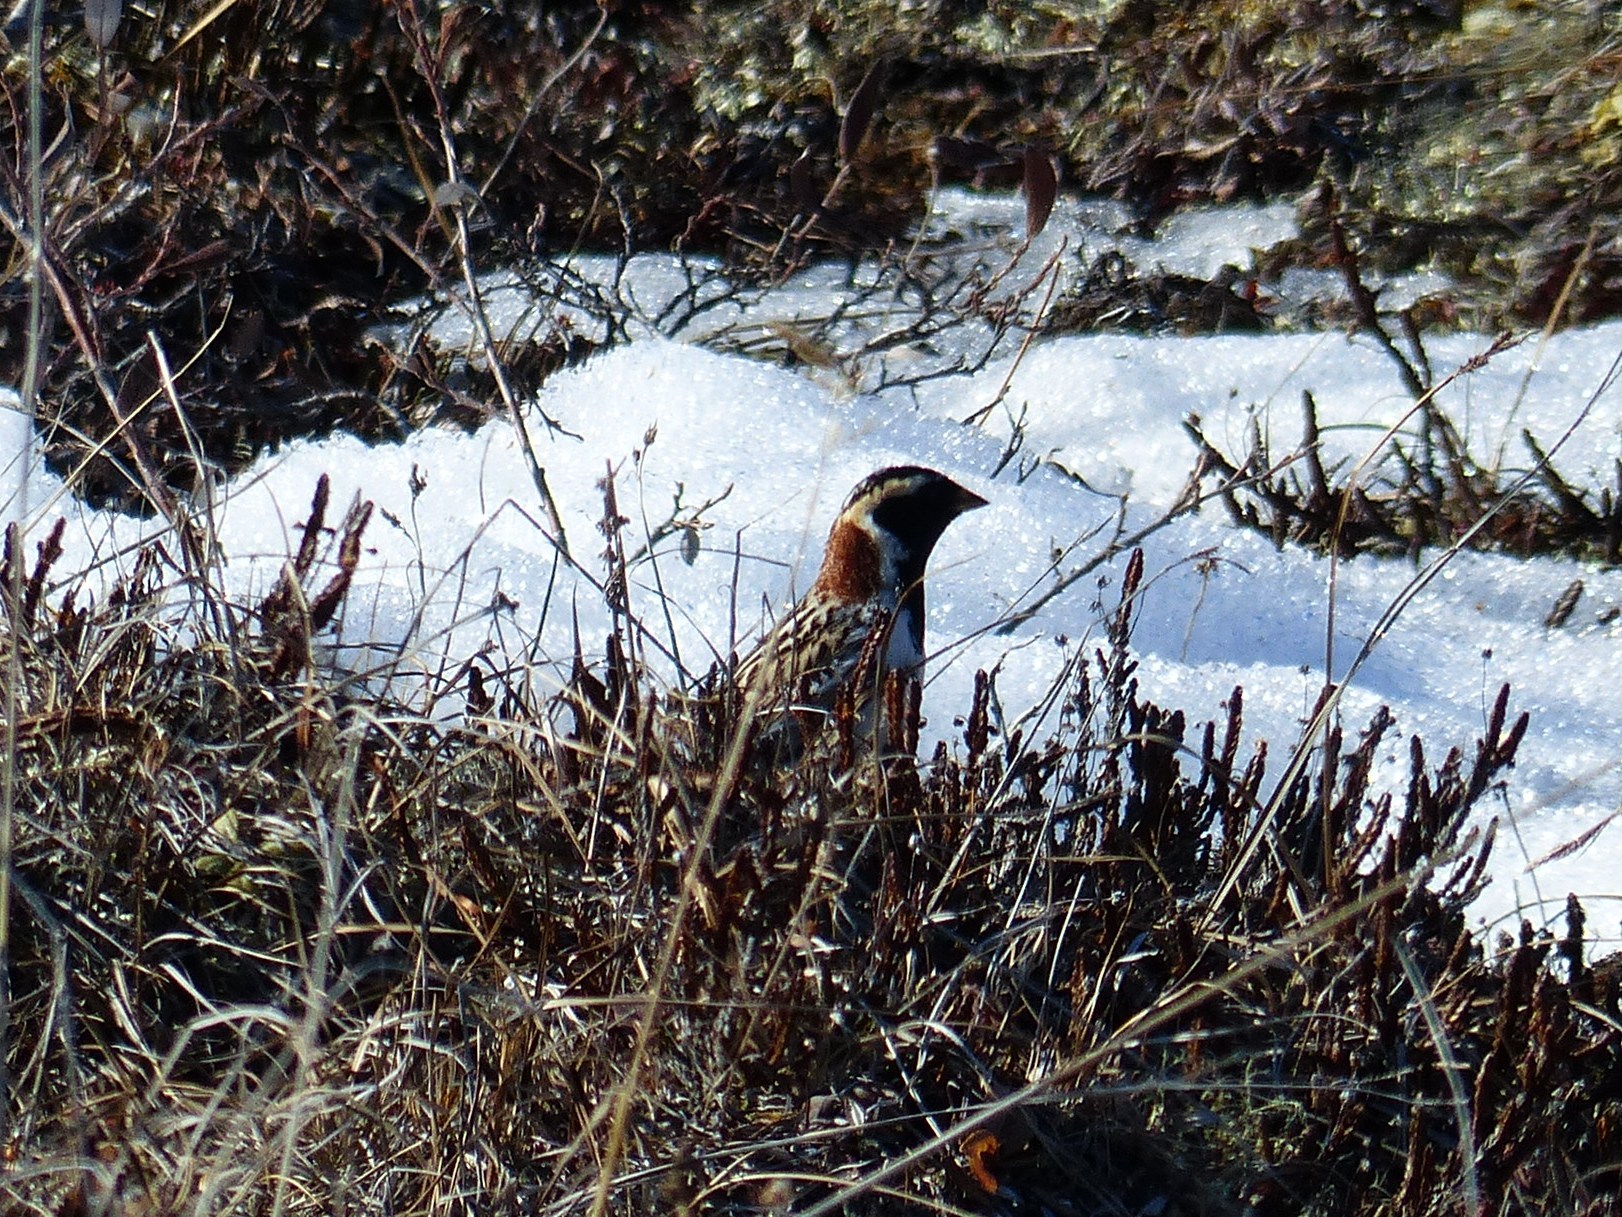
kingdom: Animalia
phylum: Chordata
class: Aves
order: Passeriformes
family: Calcariidae
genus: Calcarius
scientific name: Calcarius lapponicus
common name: Lapland longspur
